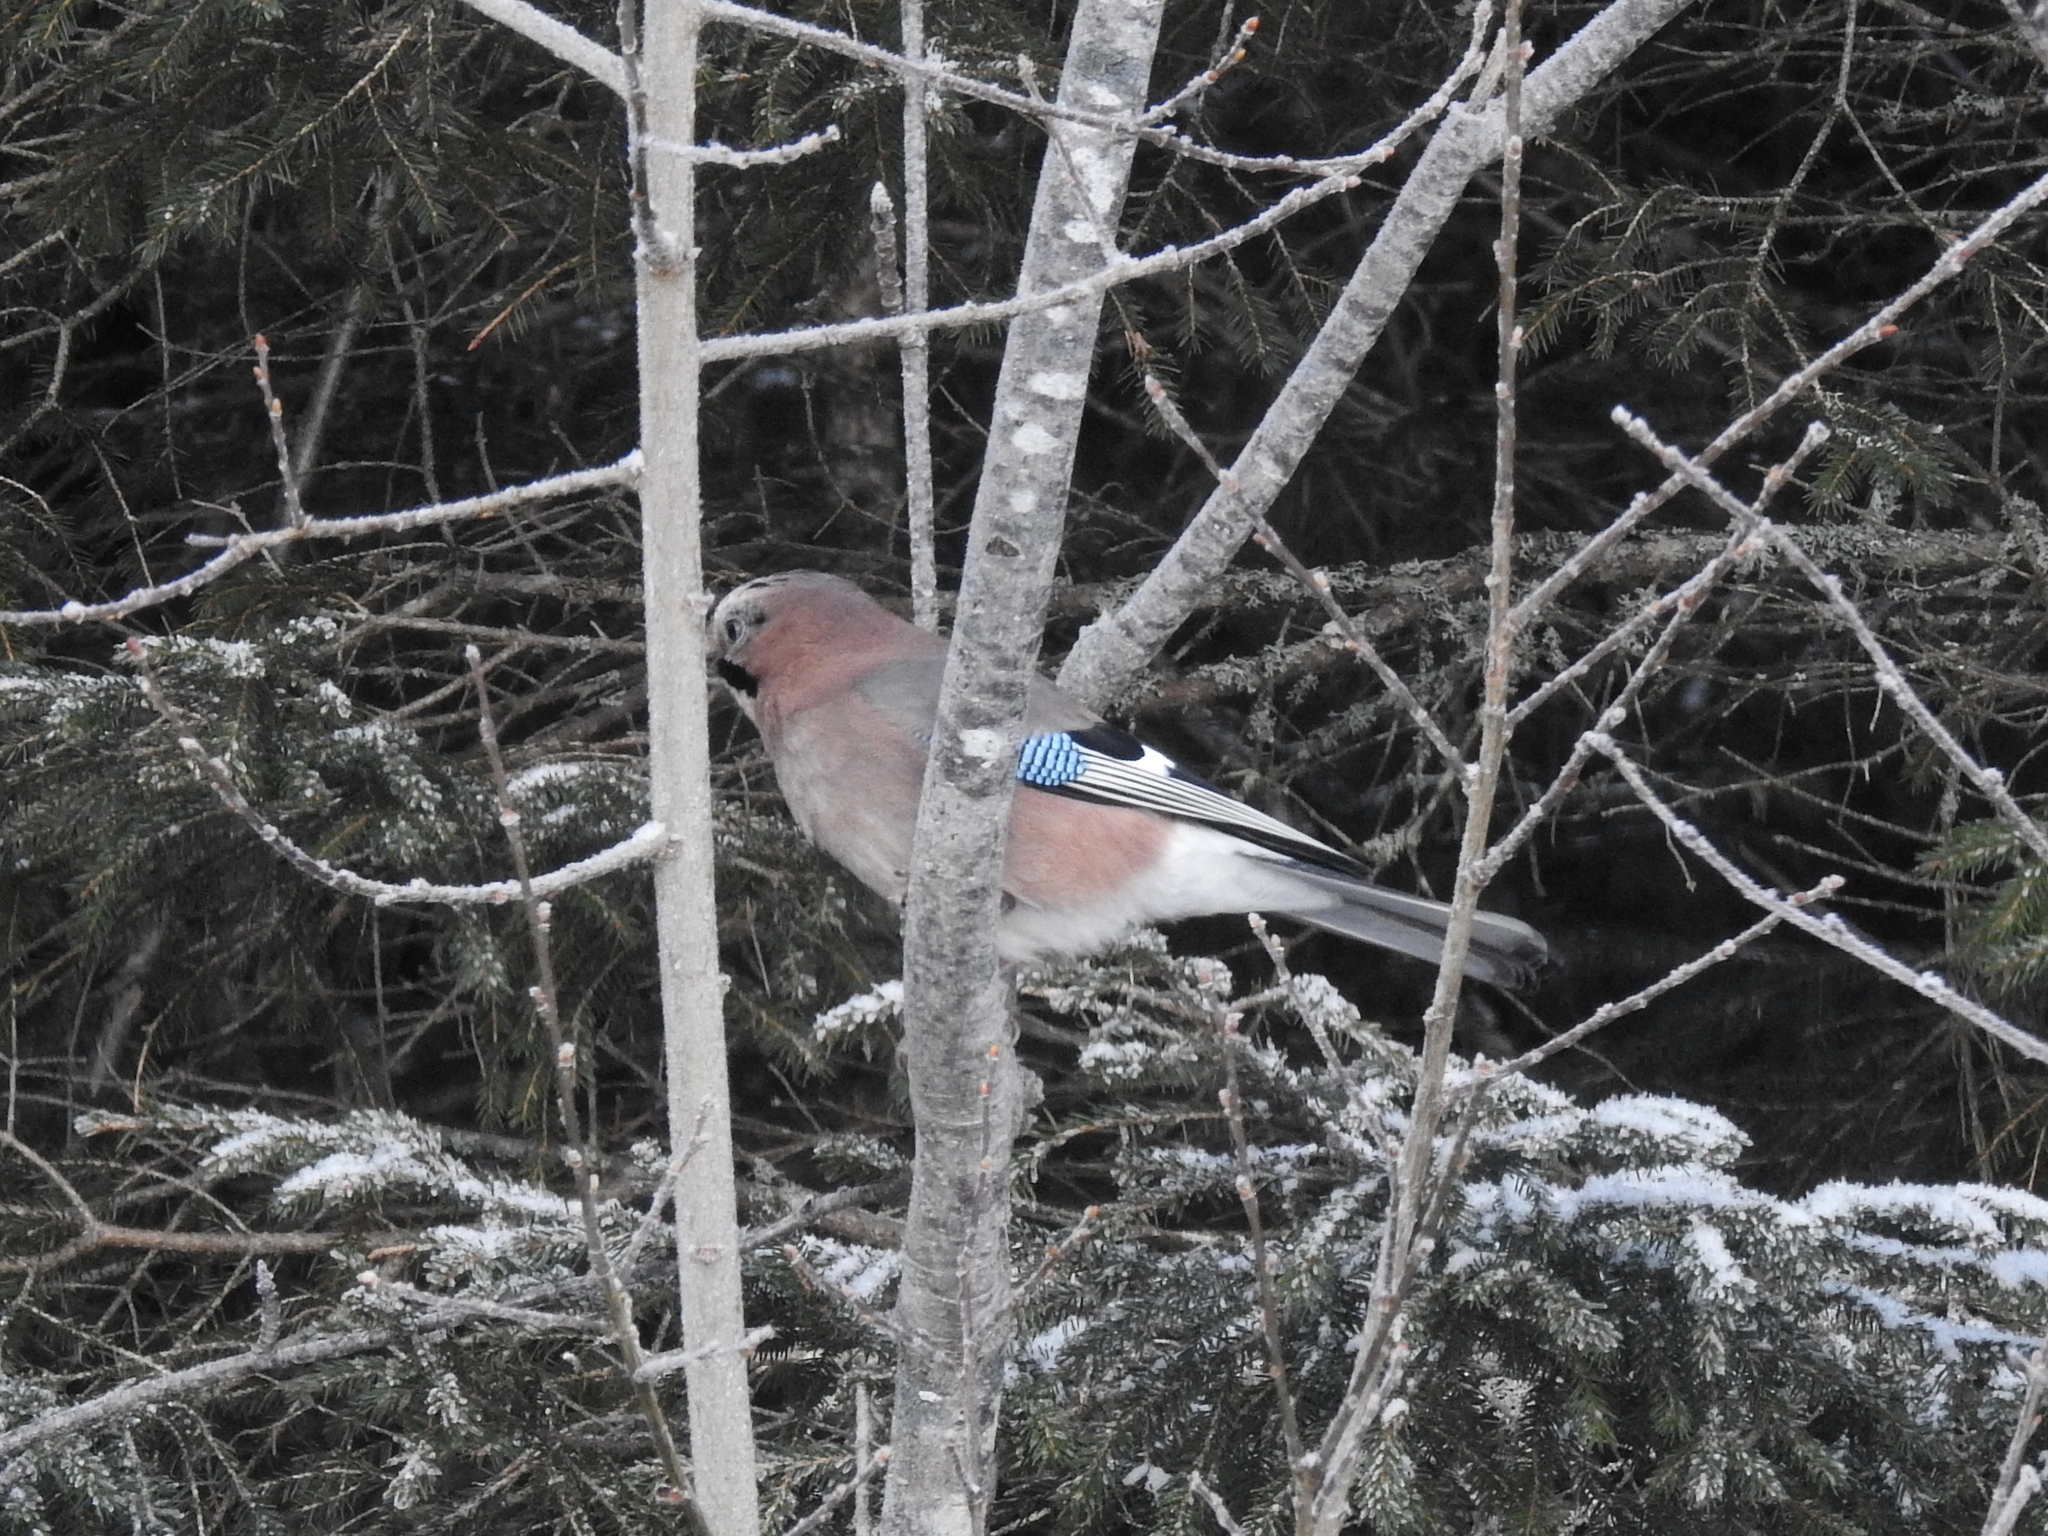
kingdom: Animalia
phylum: Chordata
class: Aves
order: Passeriformes
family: Corvidae
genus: Garrulus
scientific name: Garrulus glandarius
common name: Eurasian jay
